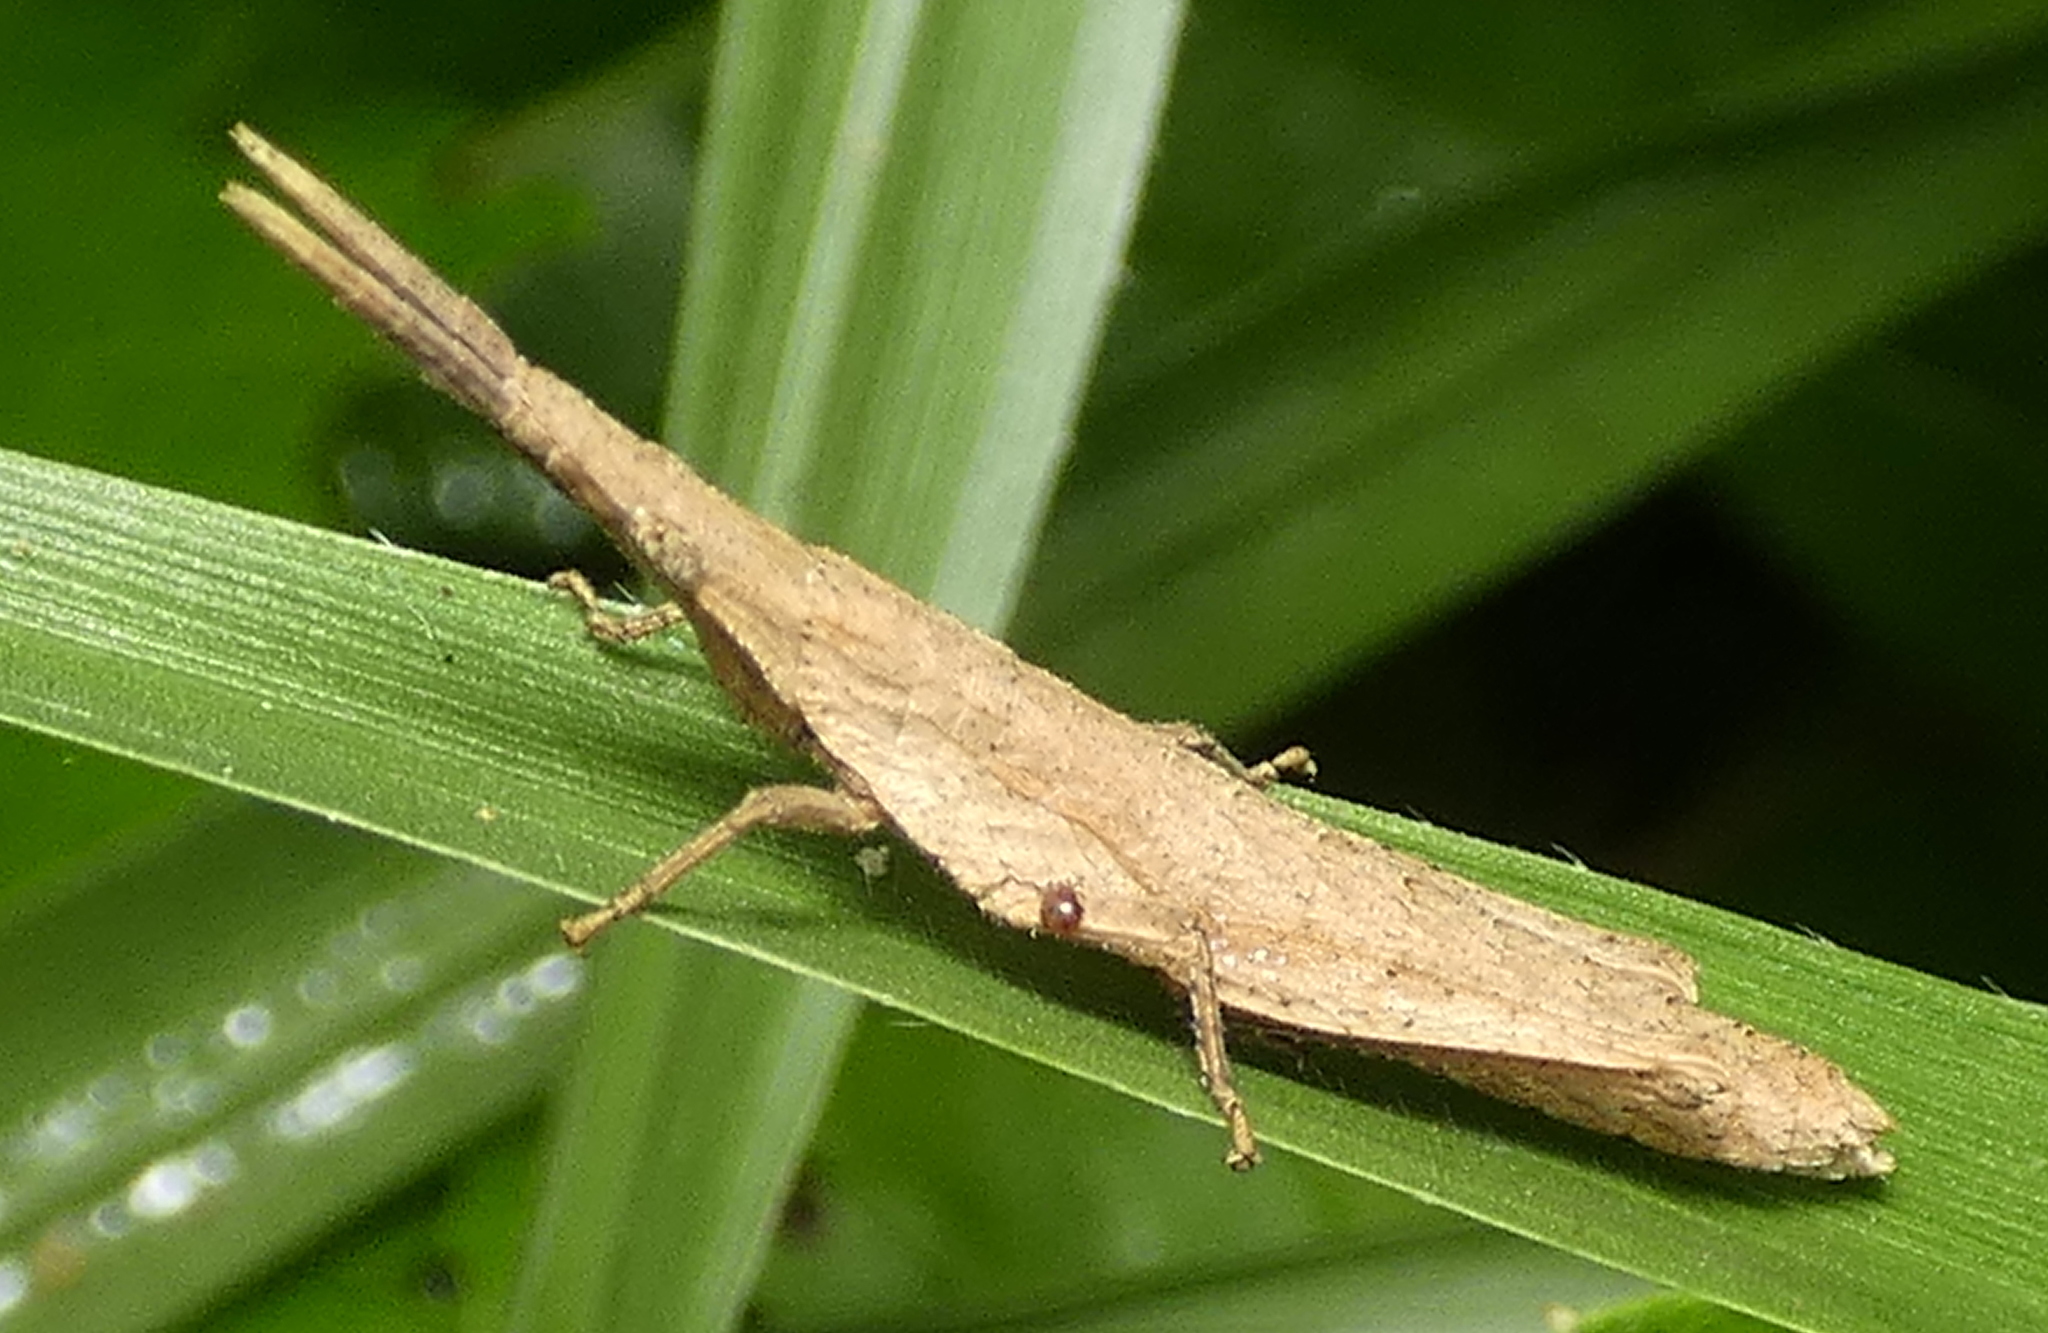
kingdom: Animalia
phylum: Arthropoda
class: Insecta
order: Orthoptera
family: Pyrgomorphidae
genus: Algete
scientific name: Algete brunneri
